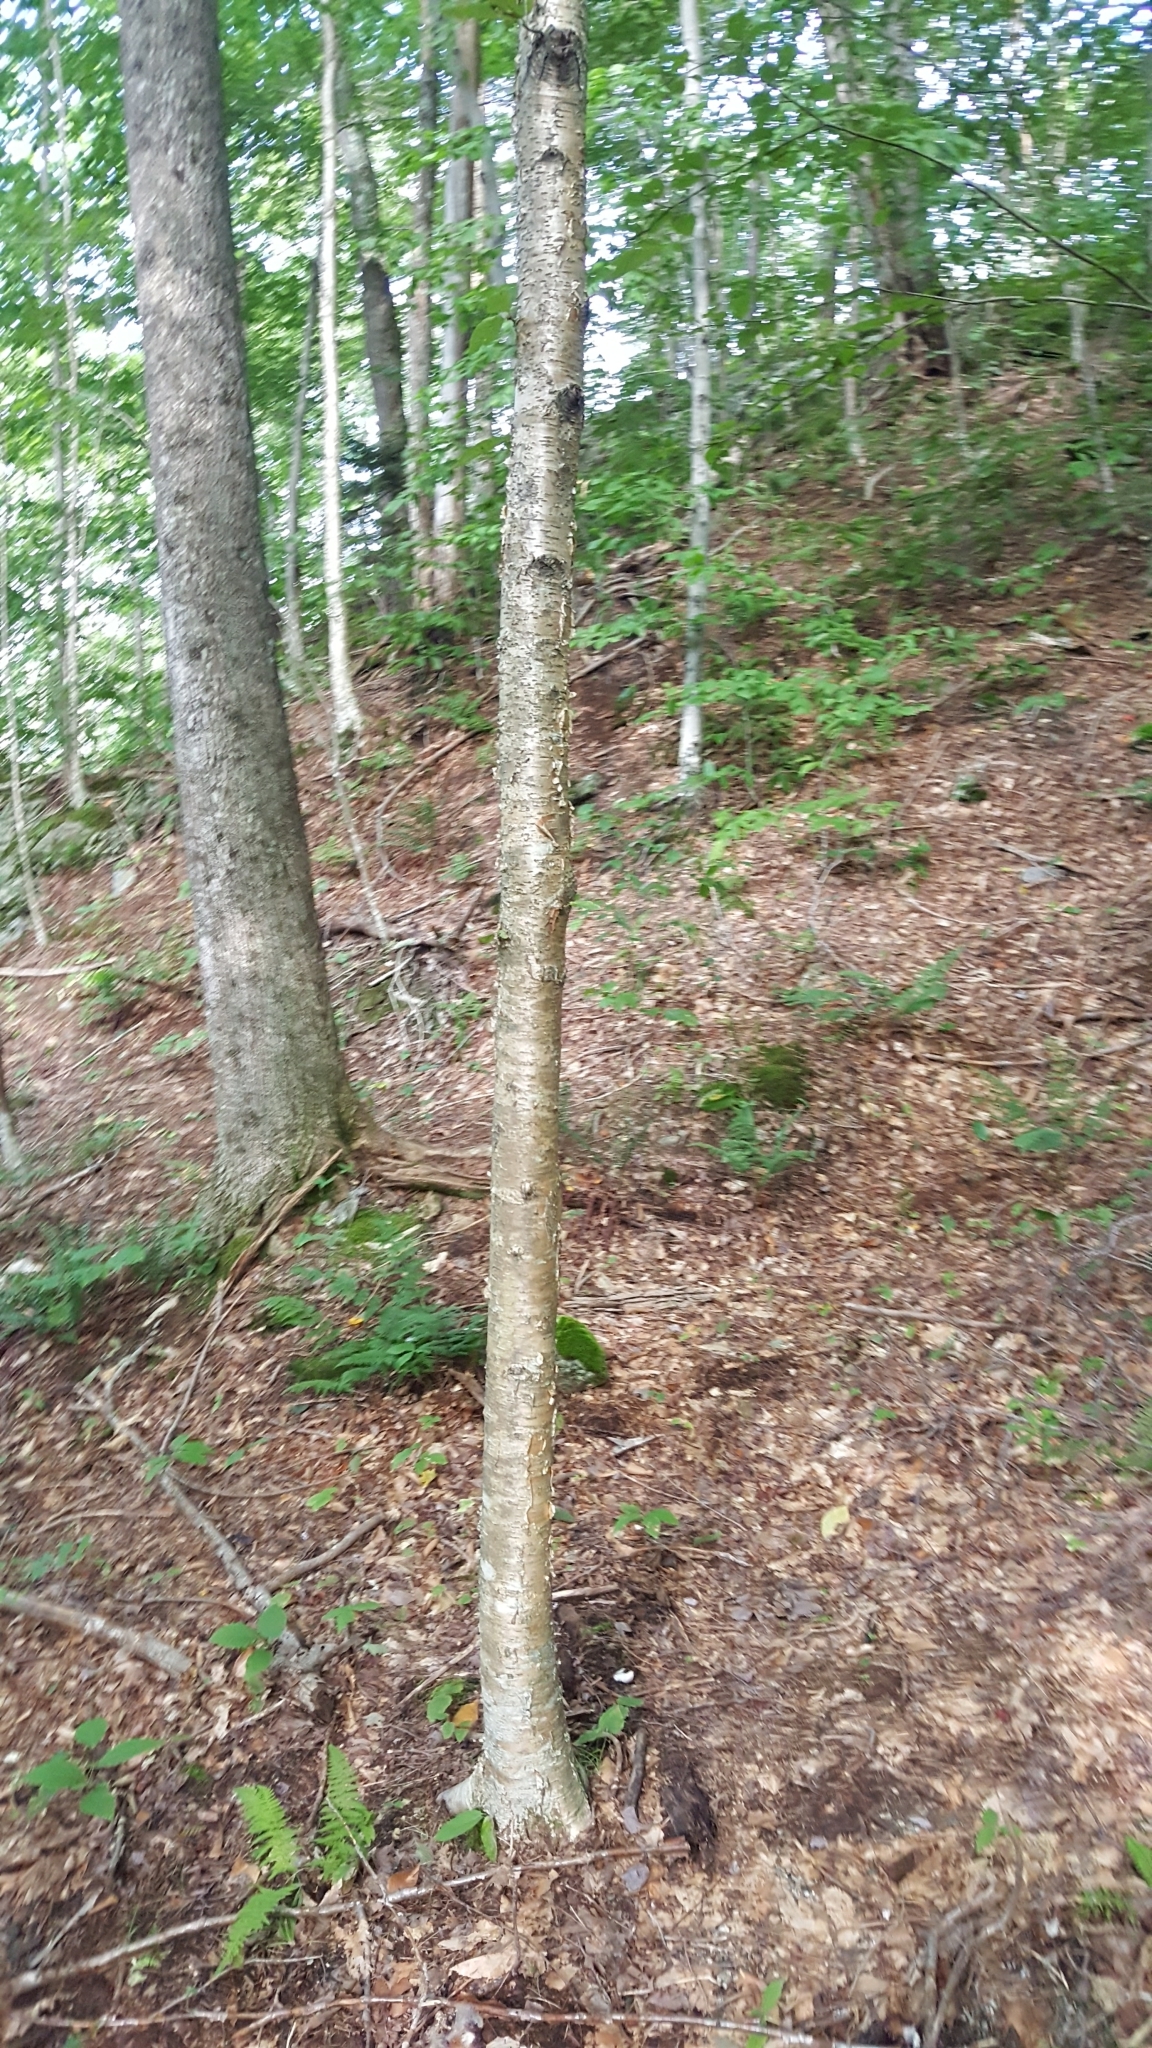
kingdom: Plantae
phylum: Tracheophyta
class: Magnoliopsida
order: Fagales
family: Betulaceae
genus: Betula
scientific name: Betula alleghaniensis
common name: Yellow birch
